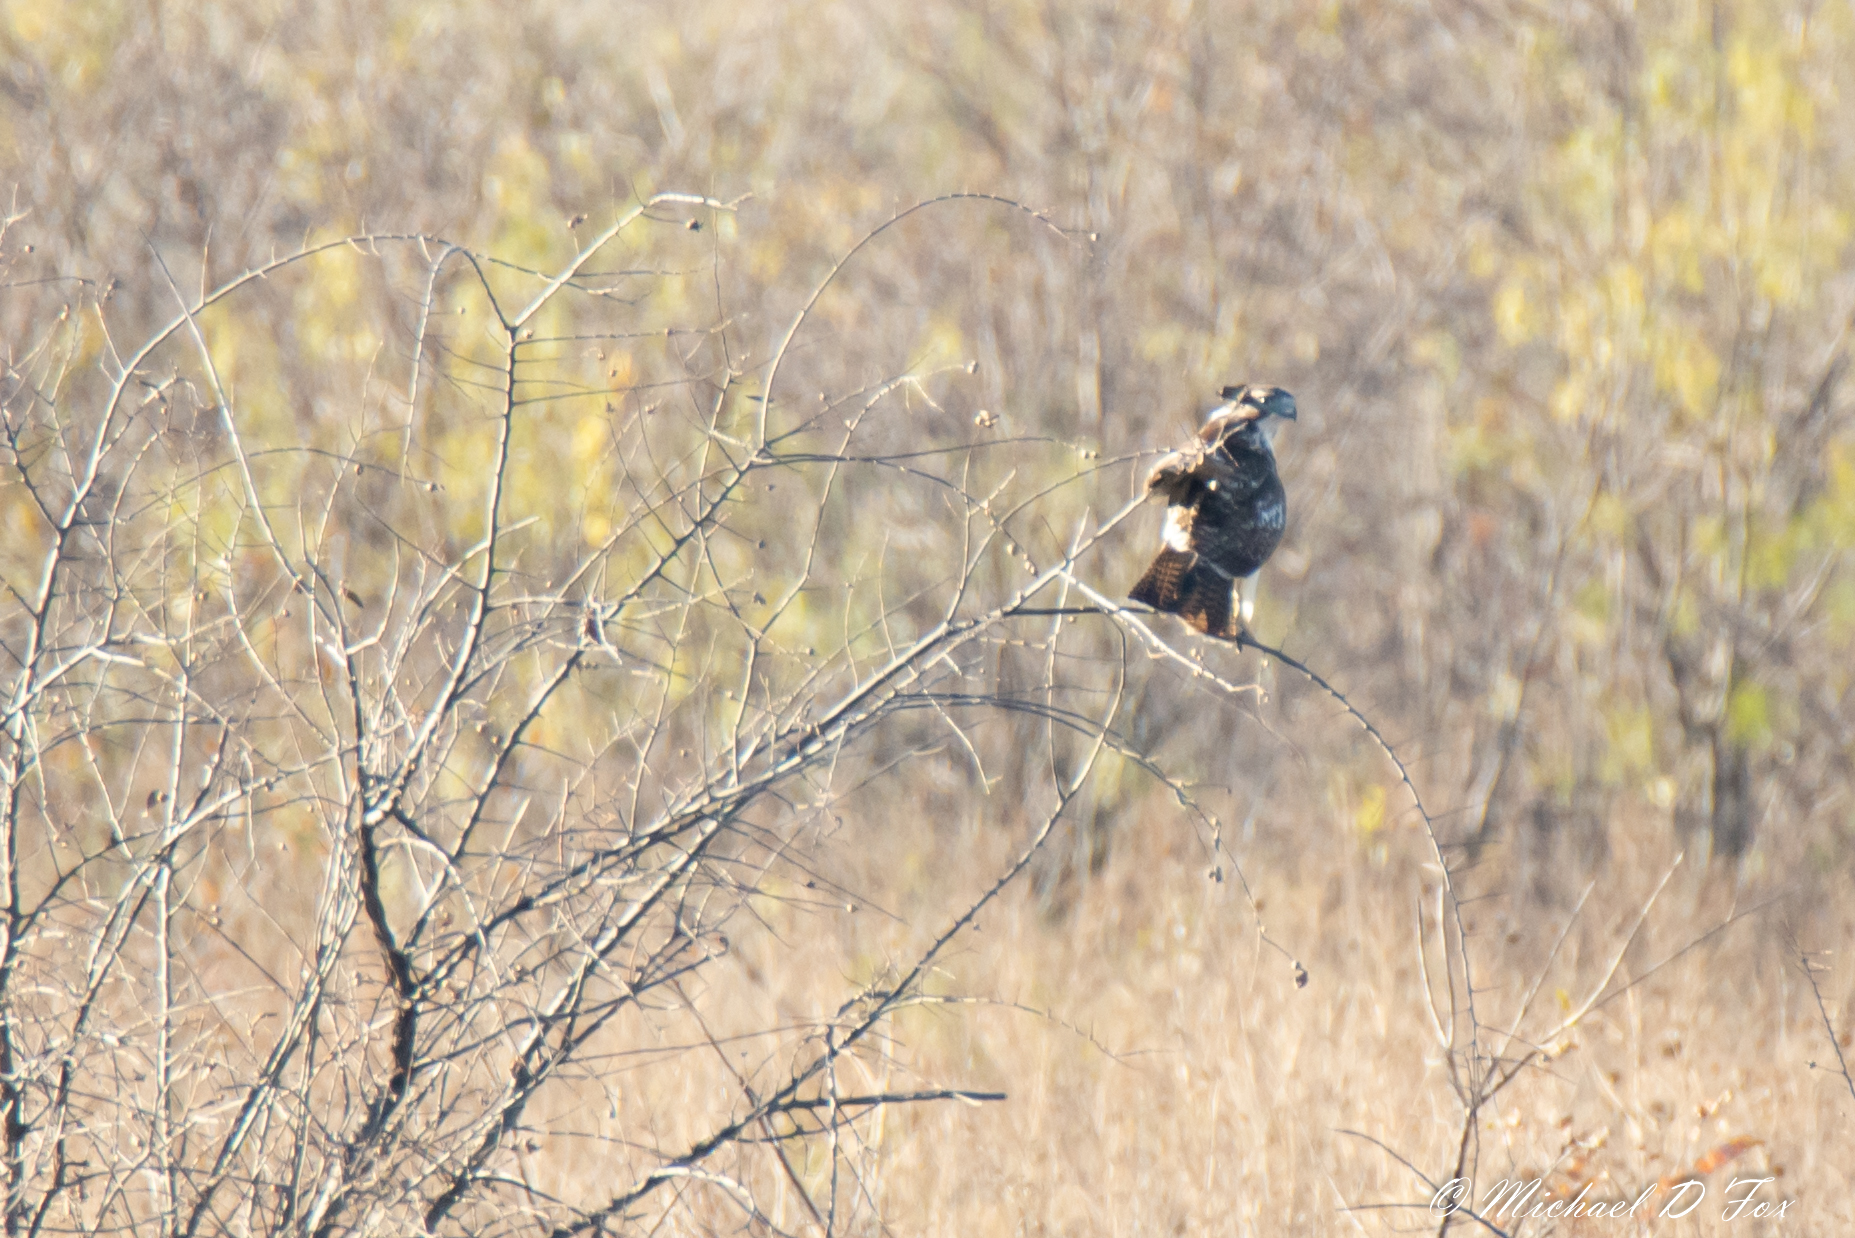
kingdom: Animalia
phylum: Chordata
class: Aves
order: Accipitriformes
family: Accipitridae
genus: Buteo
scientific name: Buteo jamaicensis
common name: Red-tailed hawk
